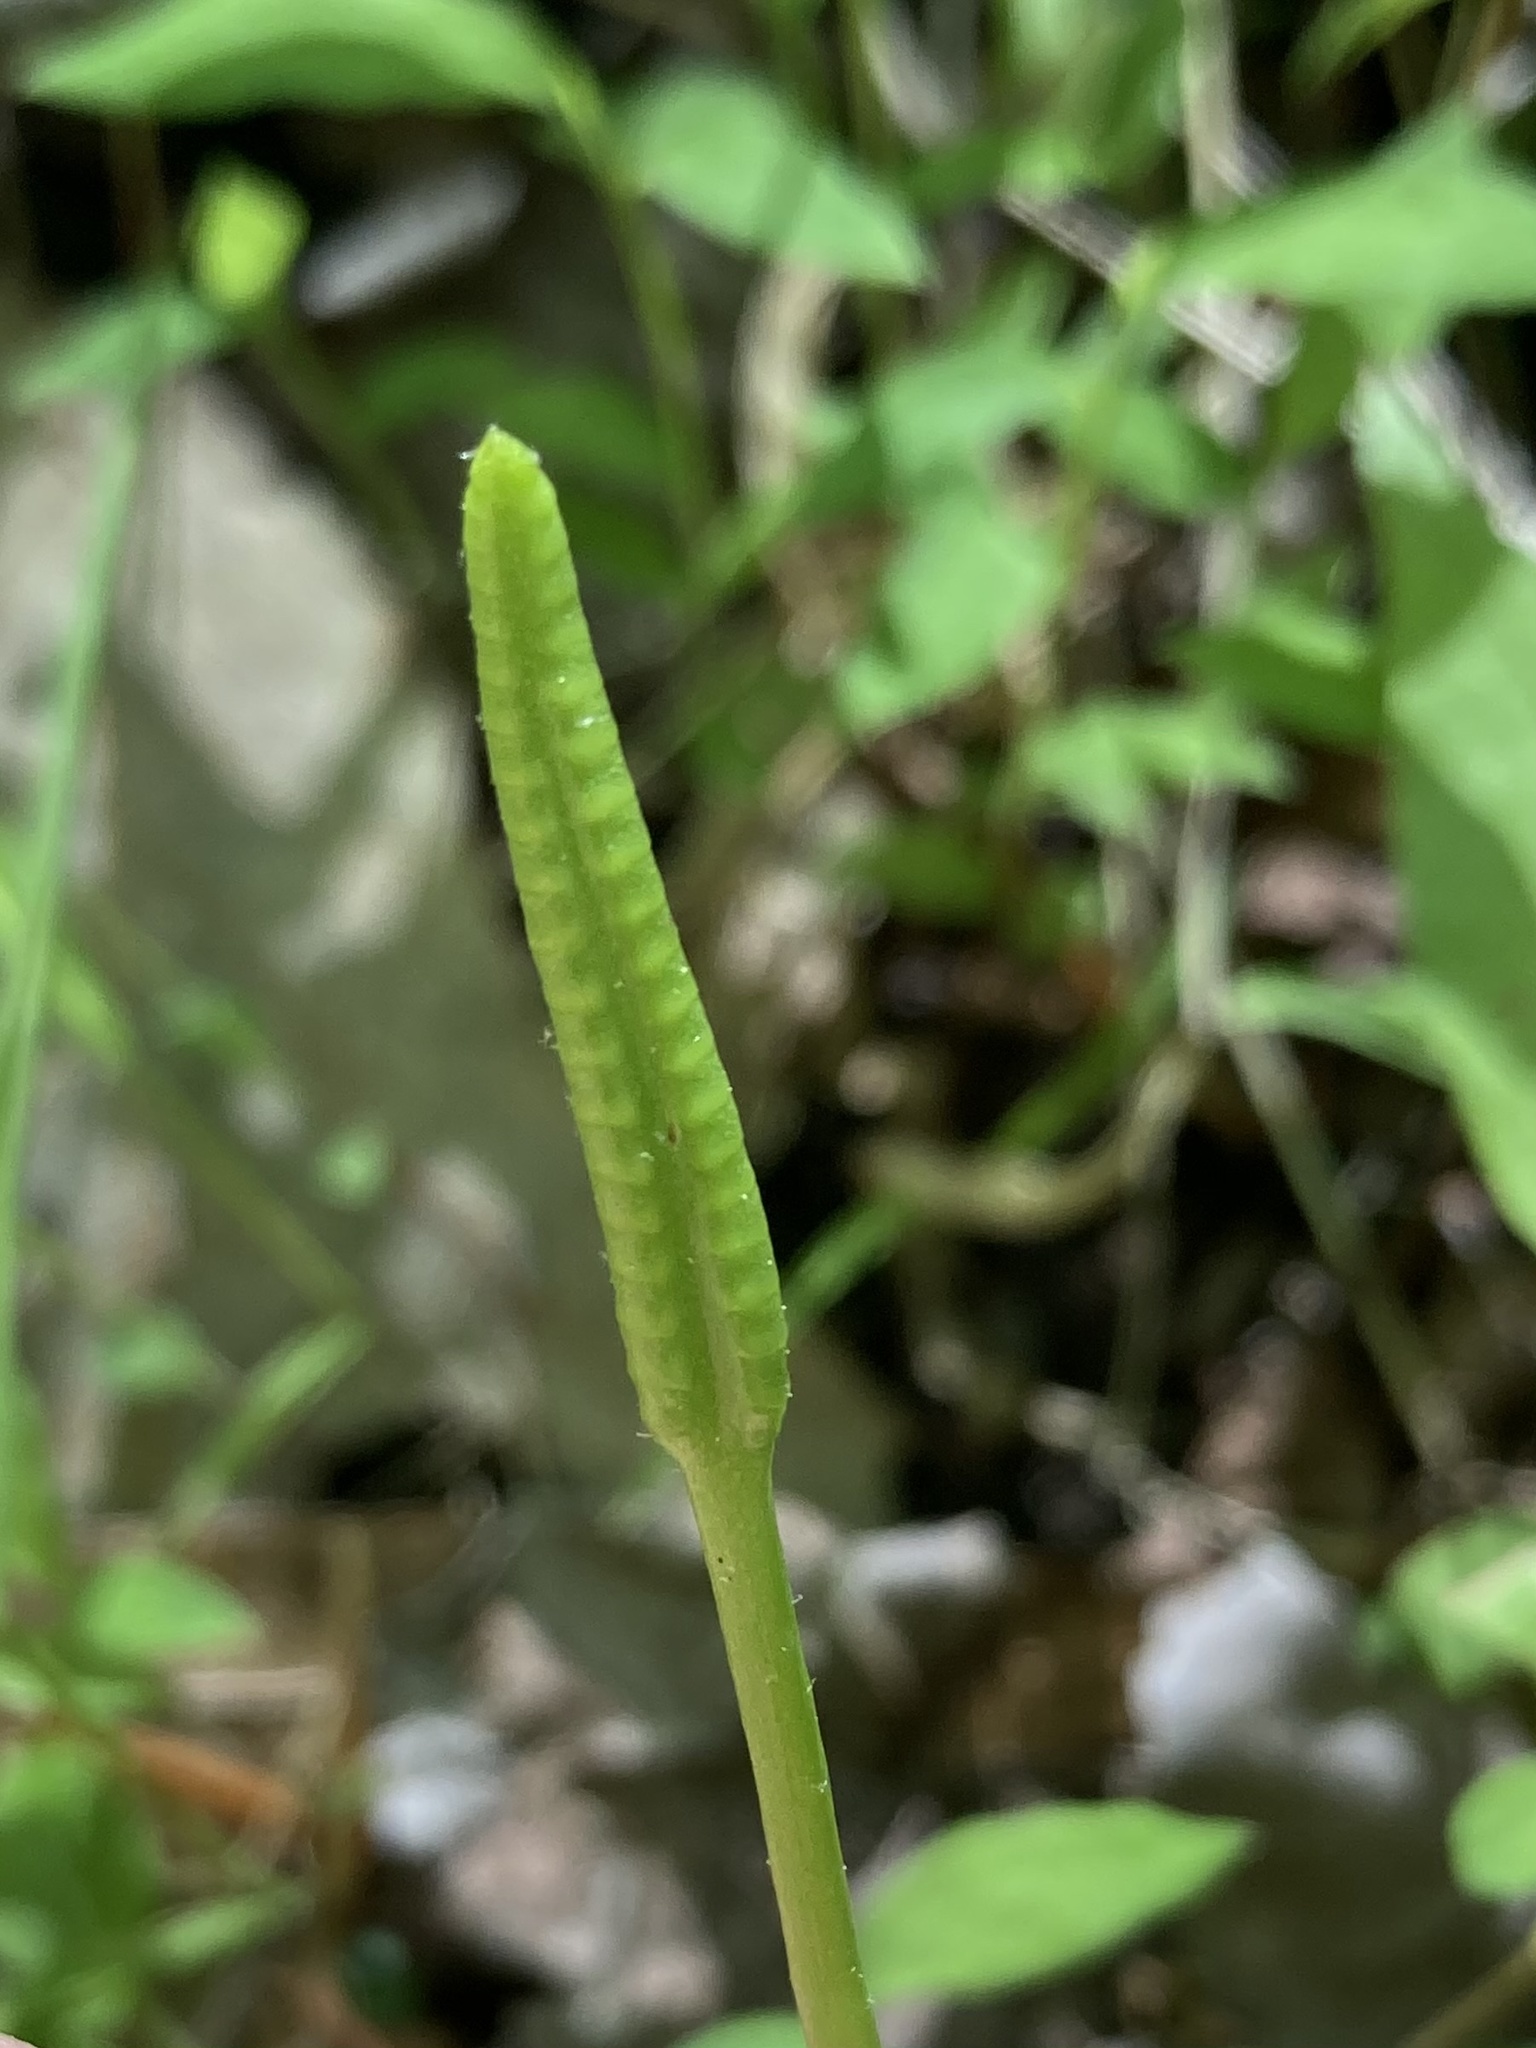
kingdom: Plantae
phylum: Tracheophyta
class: Polypodiopsida
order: Ophioglossales
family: Ophioglossaceae
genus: Ophioglossum
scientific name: Ophioglossum vulgatum
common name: Adder's-tongue
